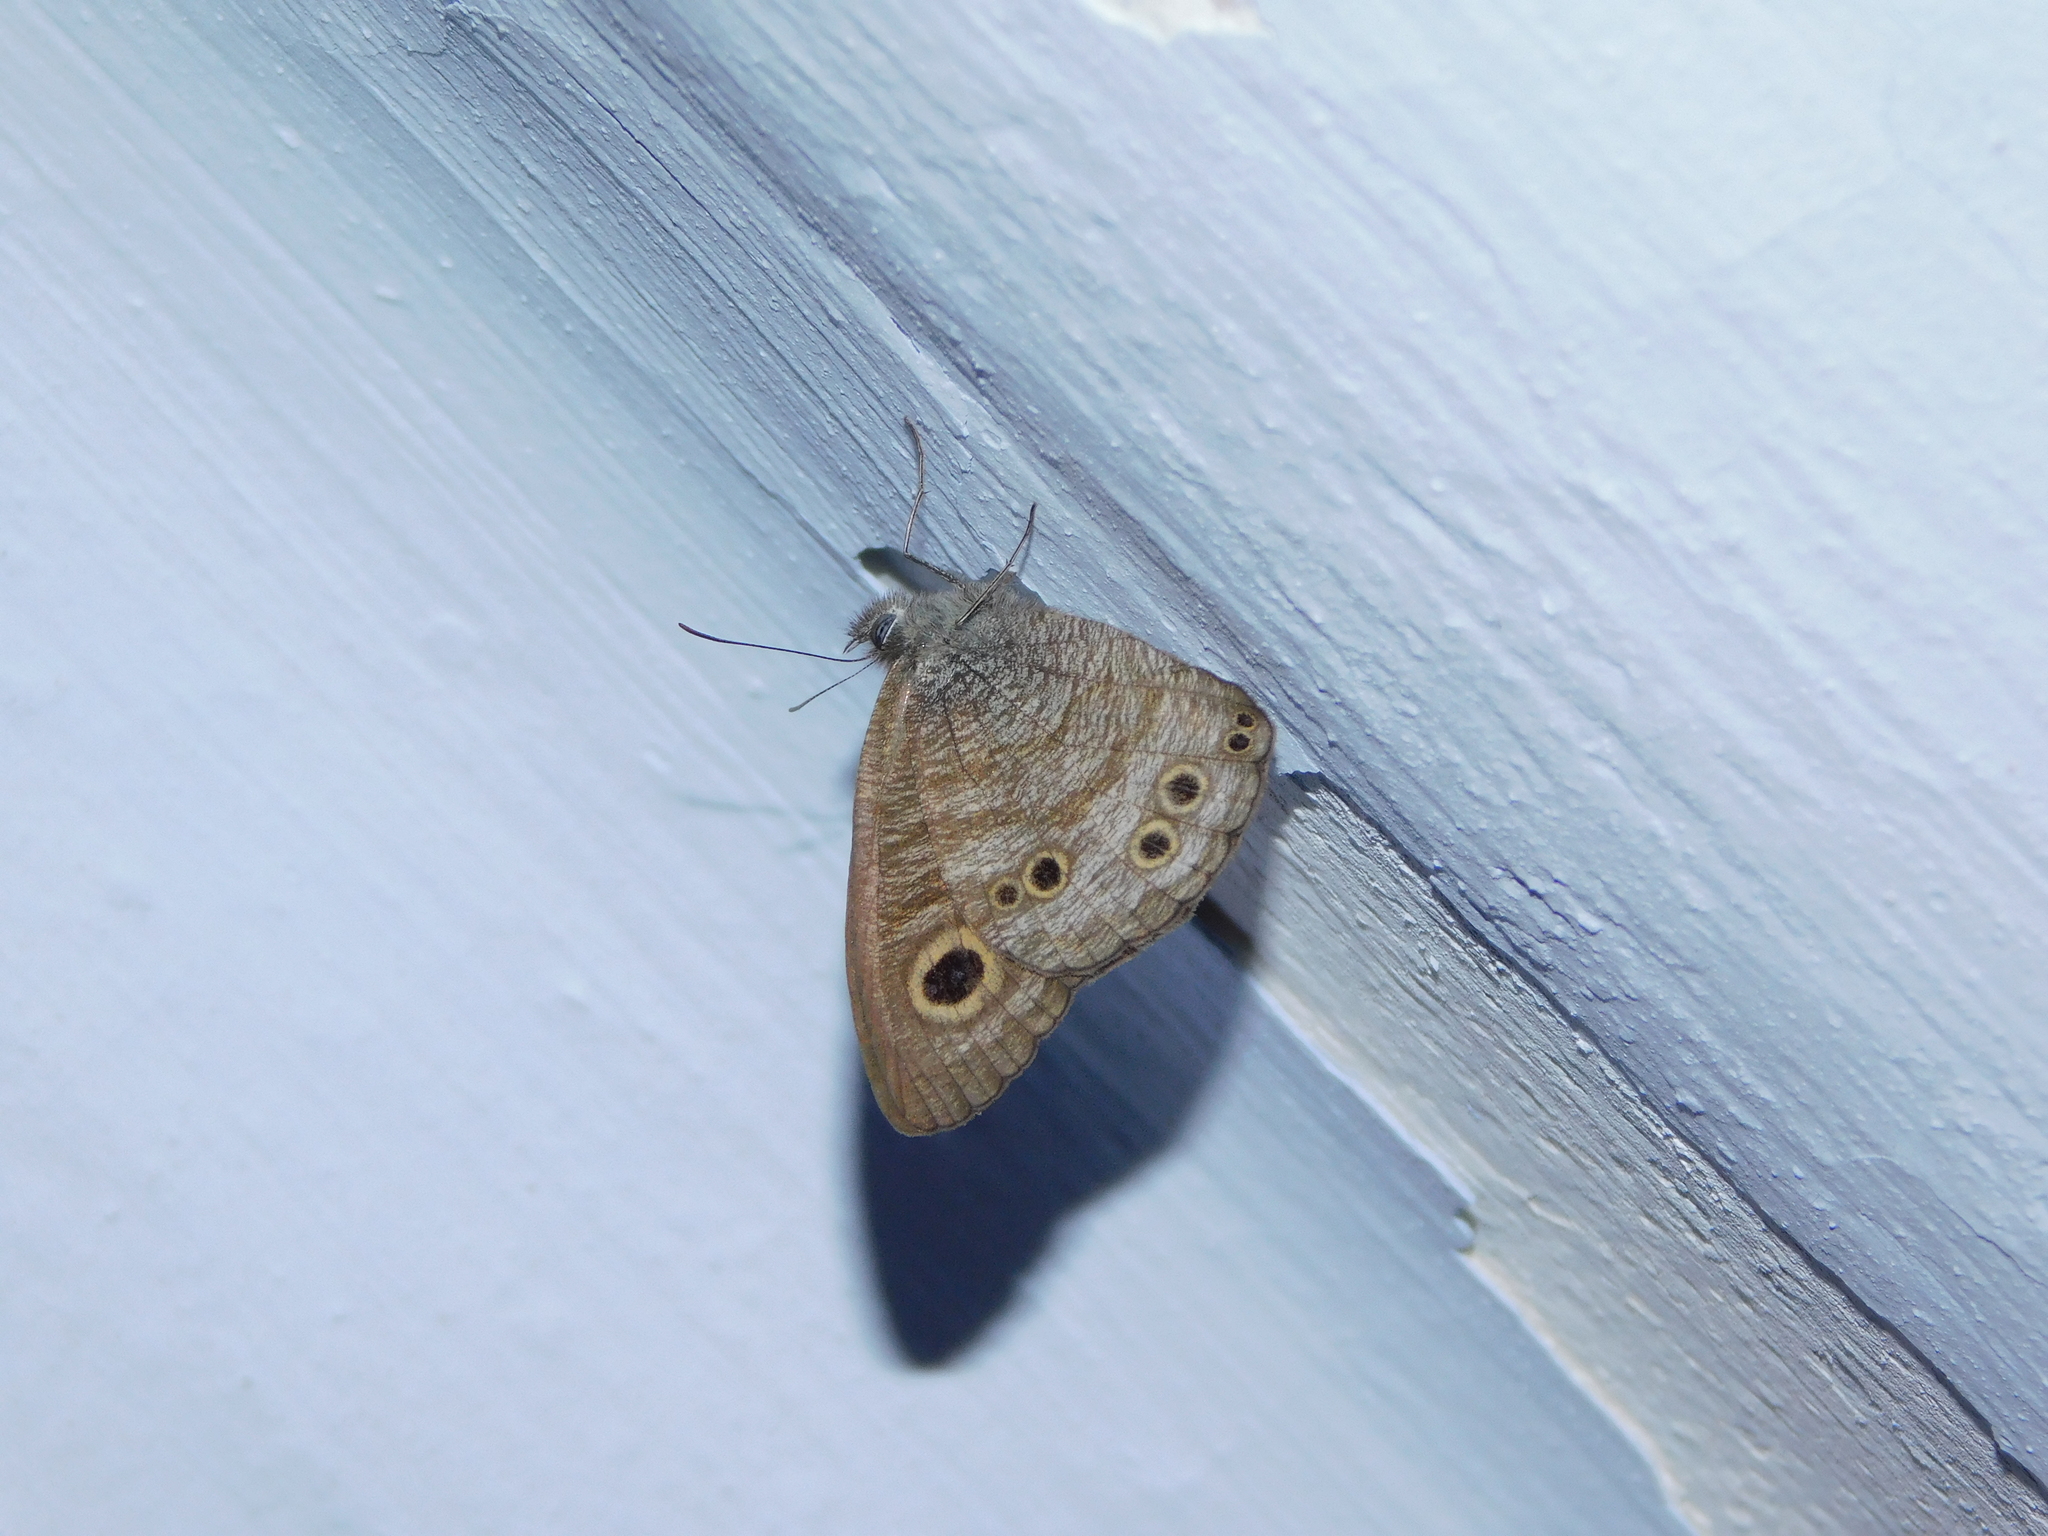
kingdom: Animalia
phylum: Arthropoda
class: Insecta
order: Lepidoptera
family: Nymphalidae
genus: Ypthima
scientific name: Ypthima baldus
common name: Common five-ring
